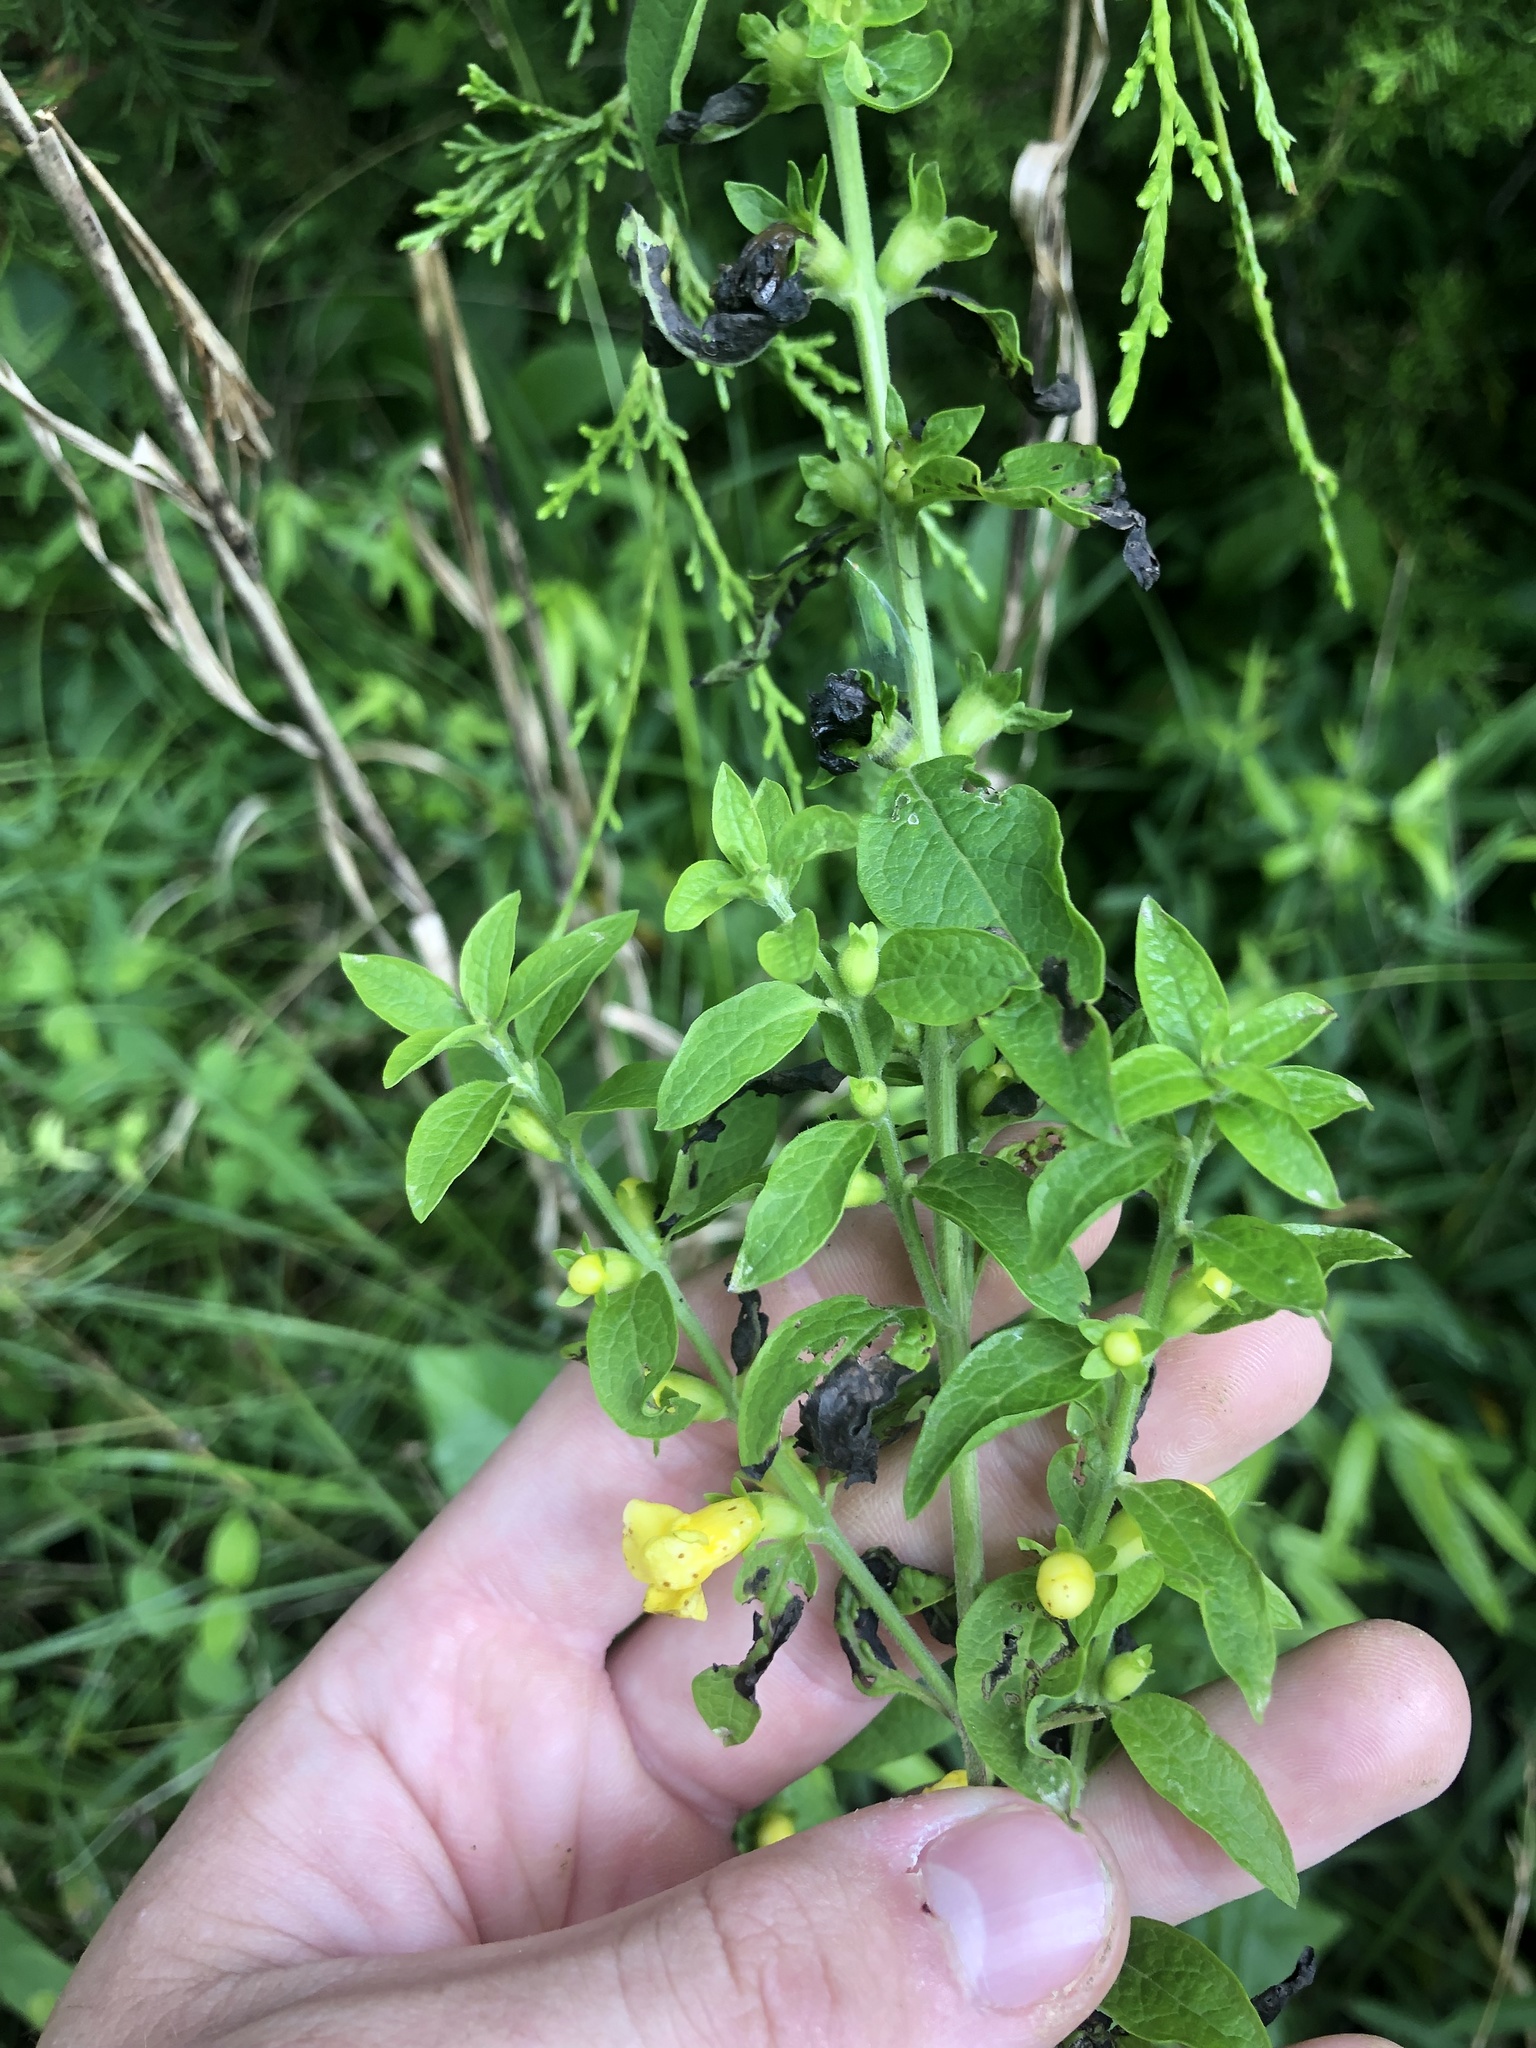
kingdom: Plantae
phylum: Tracheophyta
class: Magnoliopsida
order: Lamiales
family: Orobanchaceae
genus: Dasistoma
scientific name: Dasistoma macrophyllum
